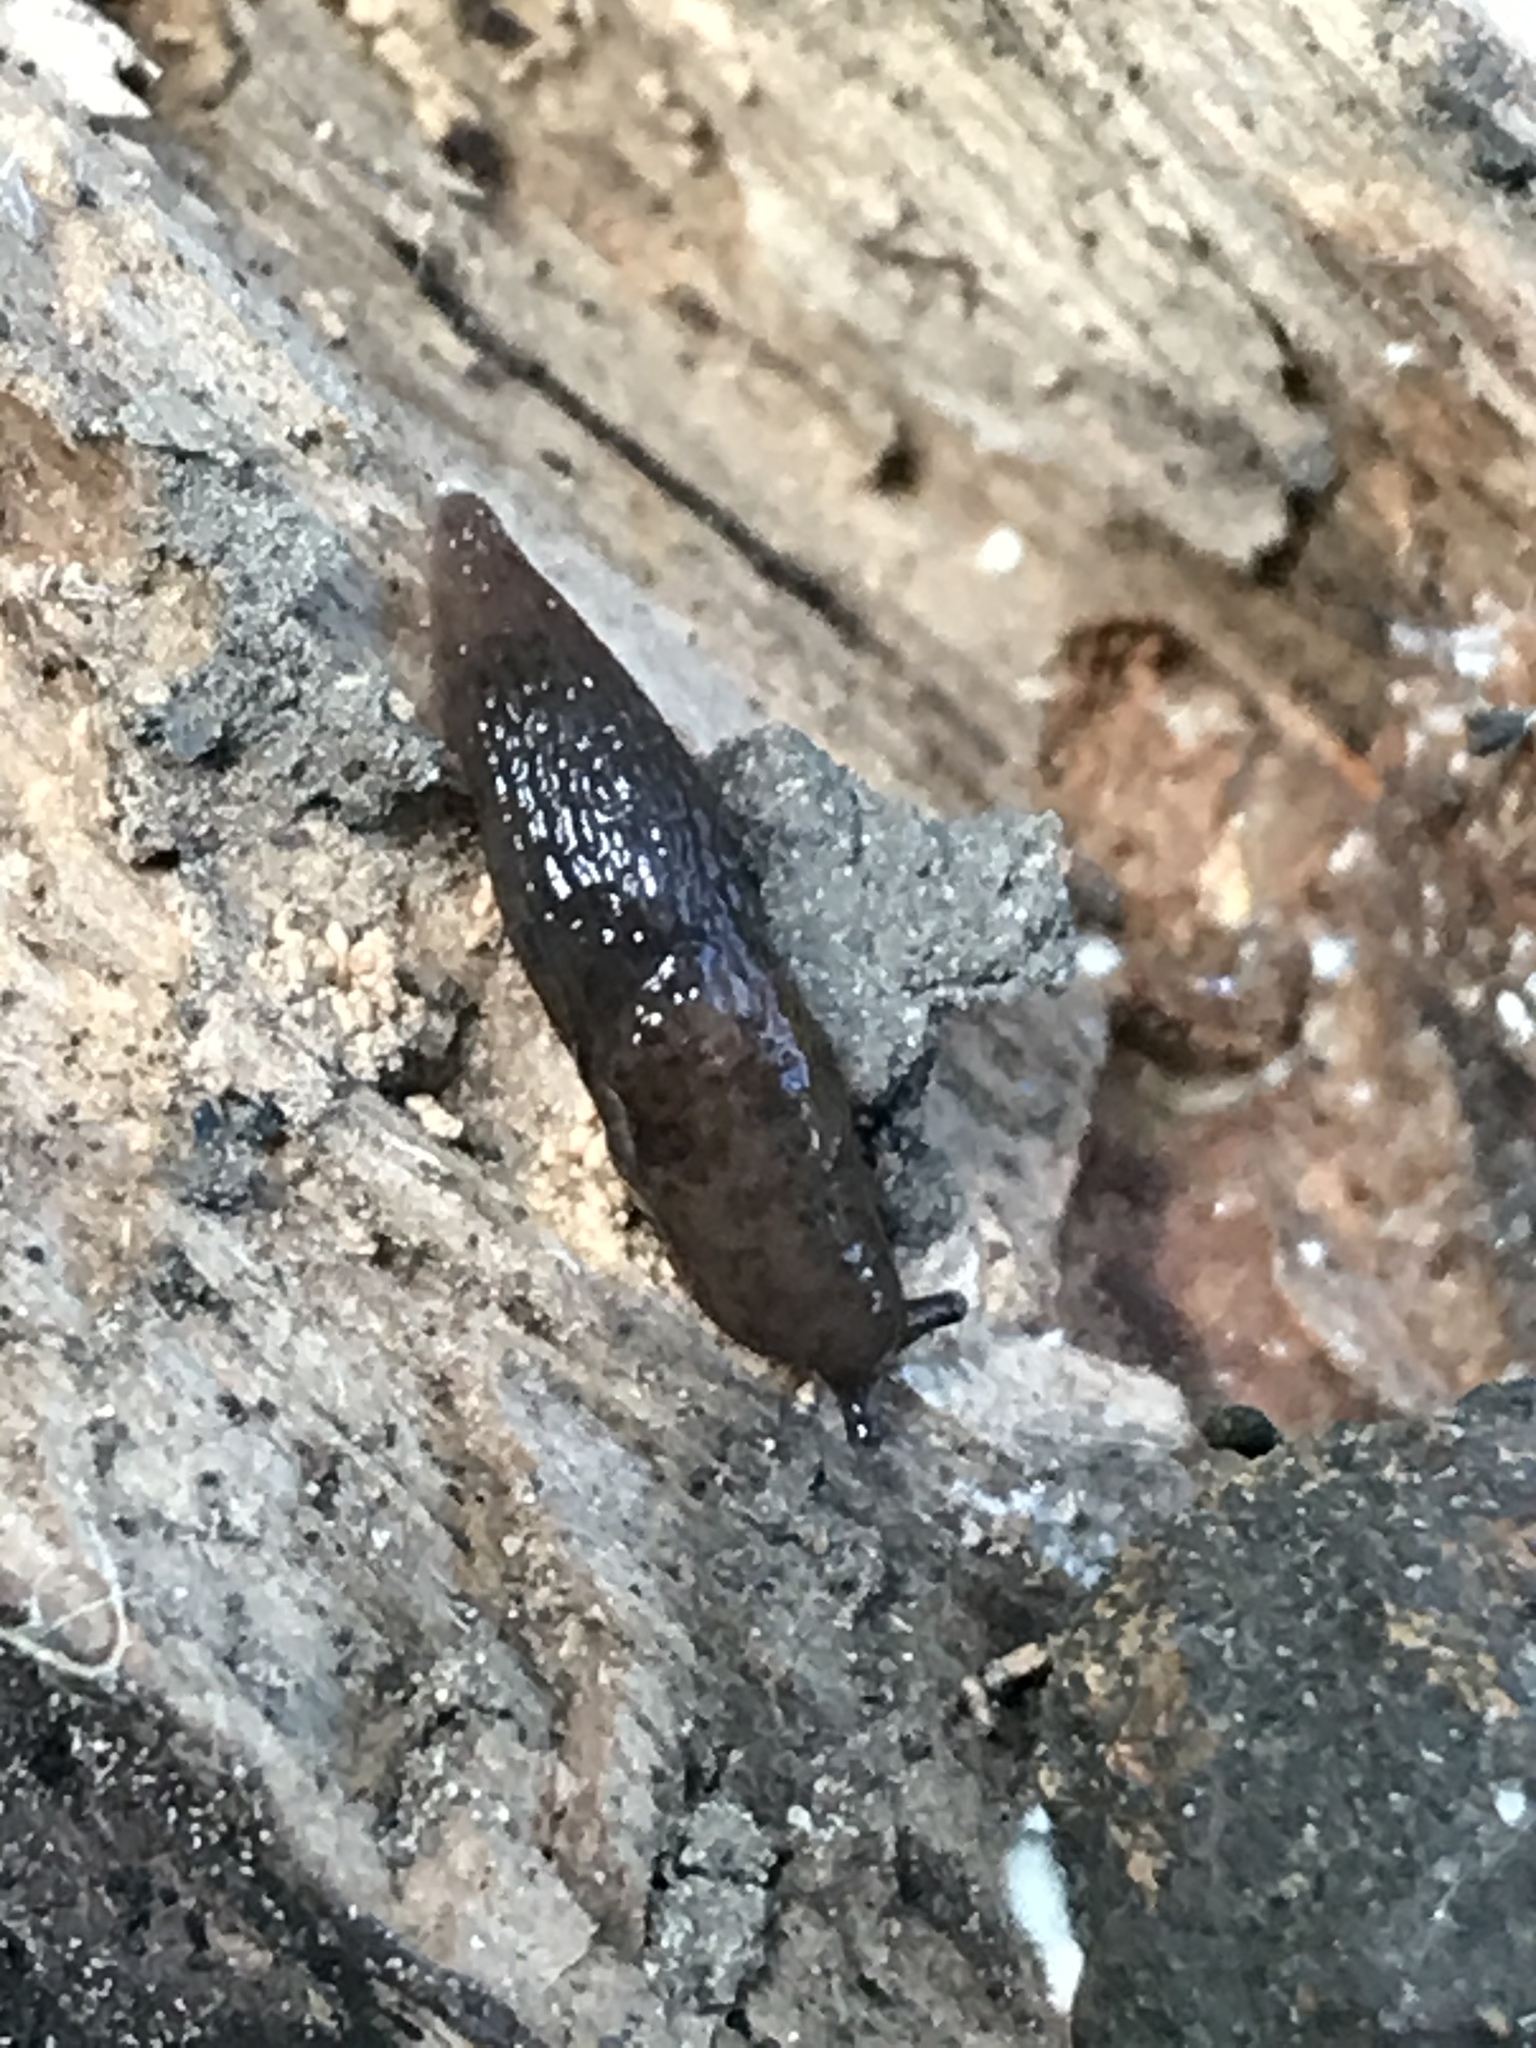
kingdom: Animalia
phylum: Mollusca
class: Gastropoda
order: Stylommatophora
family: Agriolimacidae
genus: Deroceras
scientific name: Deroceras laeve
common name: Marsh slug
